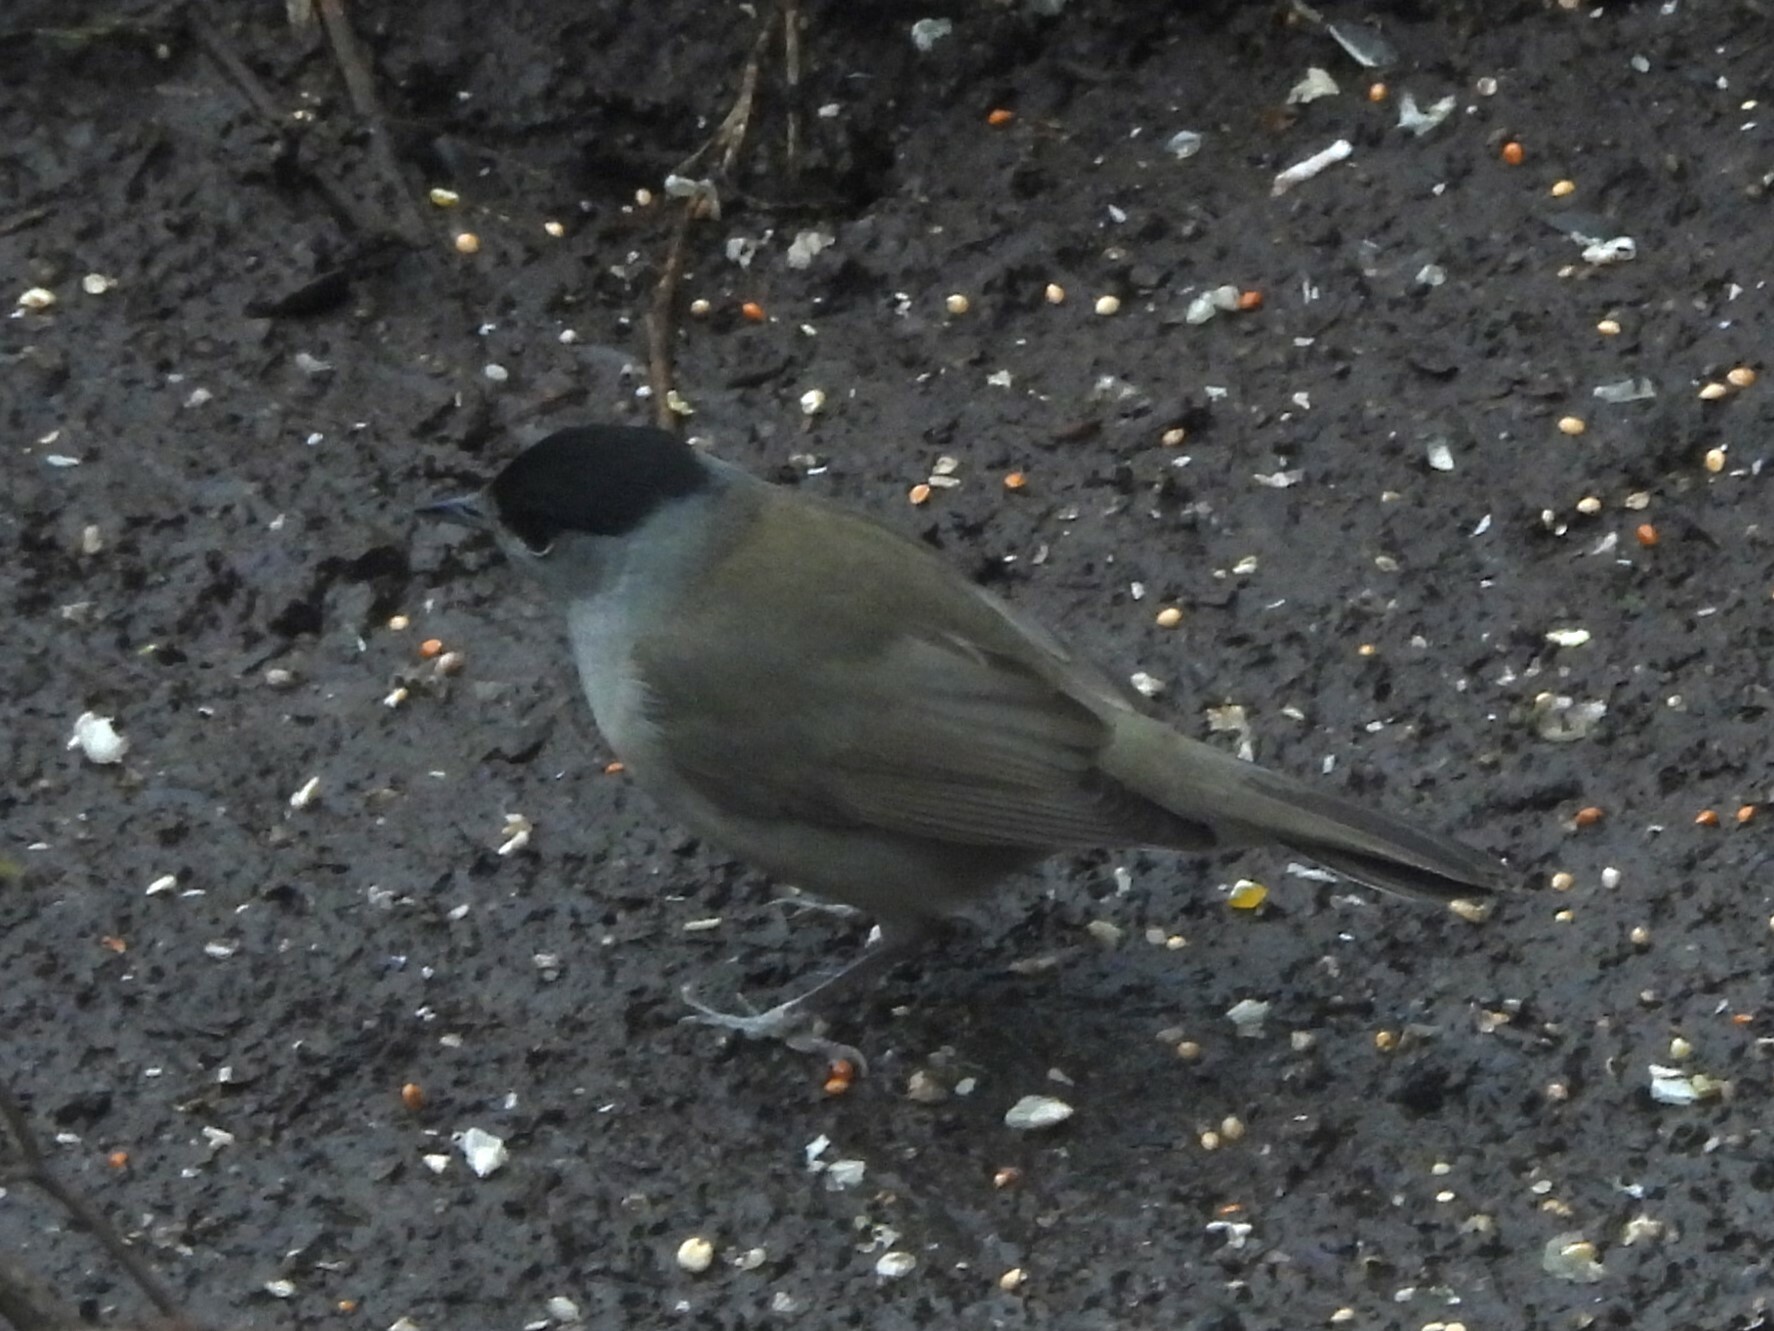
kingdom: Animalia
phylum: Chordata
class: Aves
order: Passeriformes
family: Sylviidae
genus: Sylvia
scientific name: Sylvia atricapilla
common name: Eurasian blackcap
